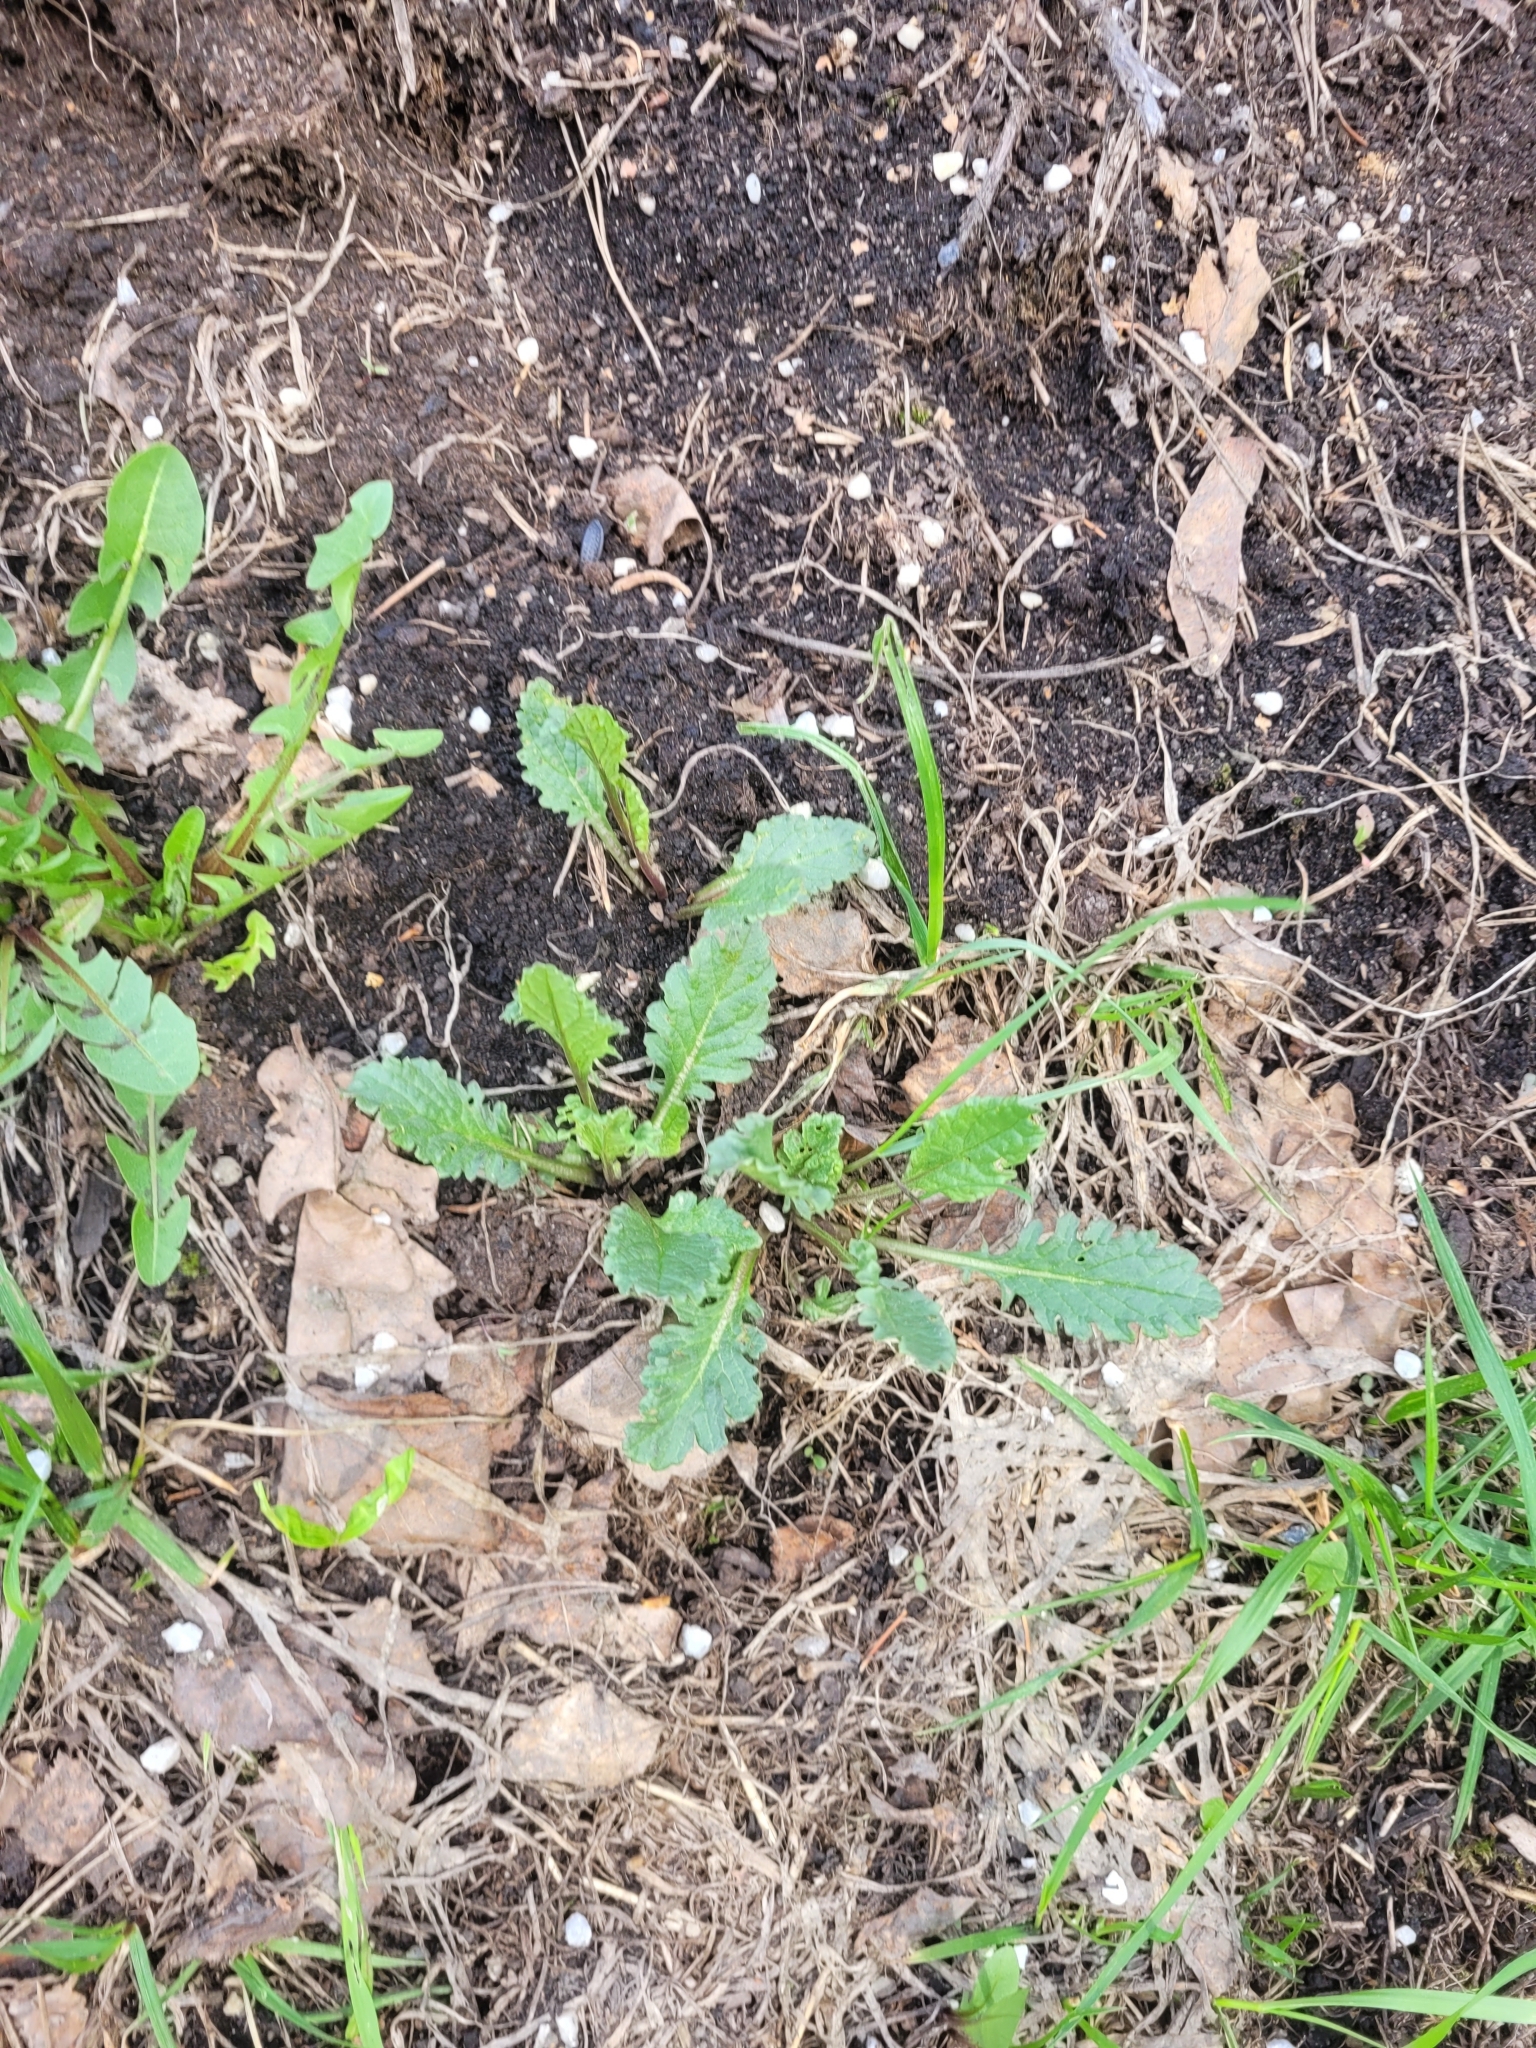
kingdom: Plantae
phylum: Tracheophyta
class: Magnoliopsida
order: Asterales
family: Asteraceae
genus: Jacobaea
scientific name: Jacobaea vulgaris
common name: Stinking willie
